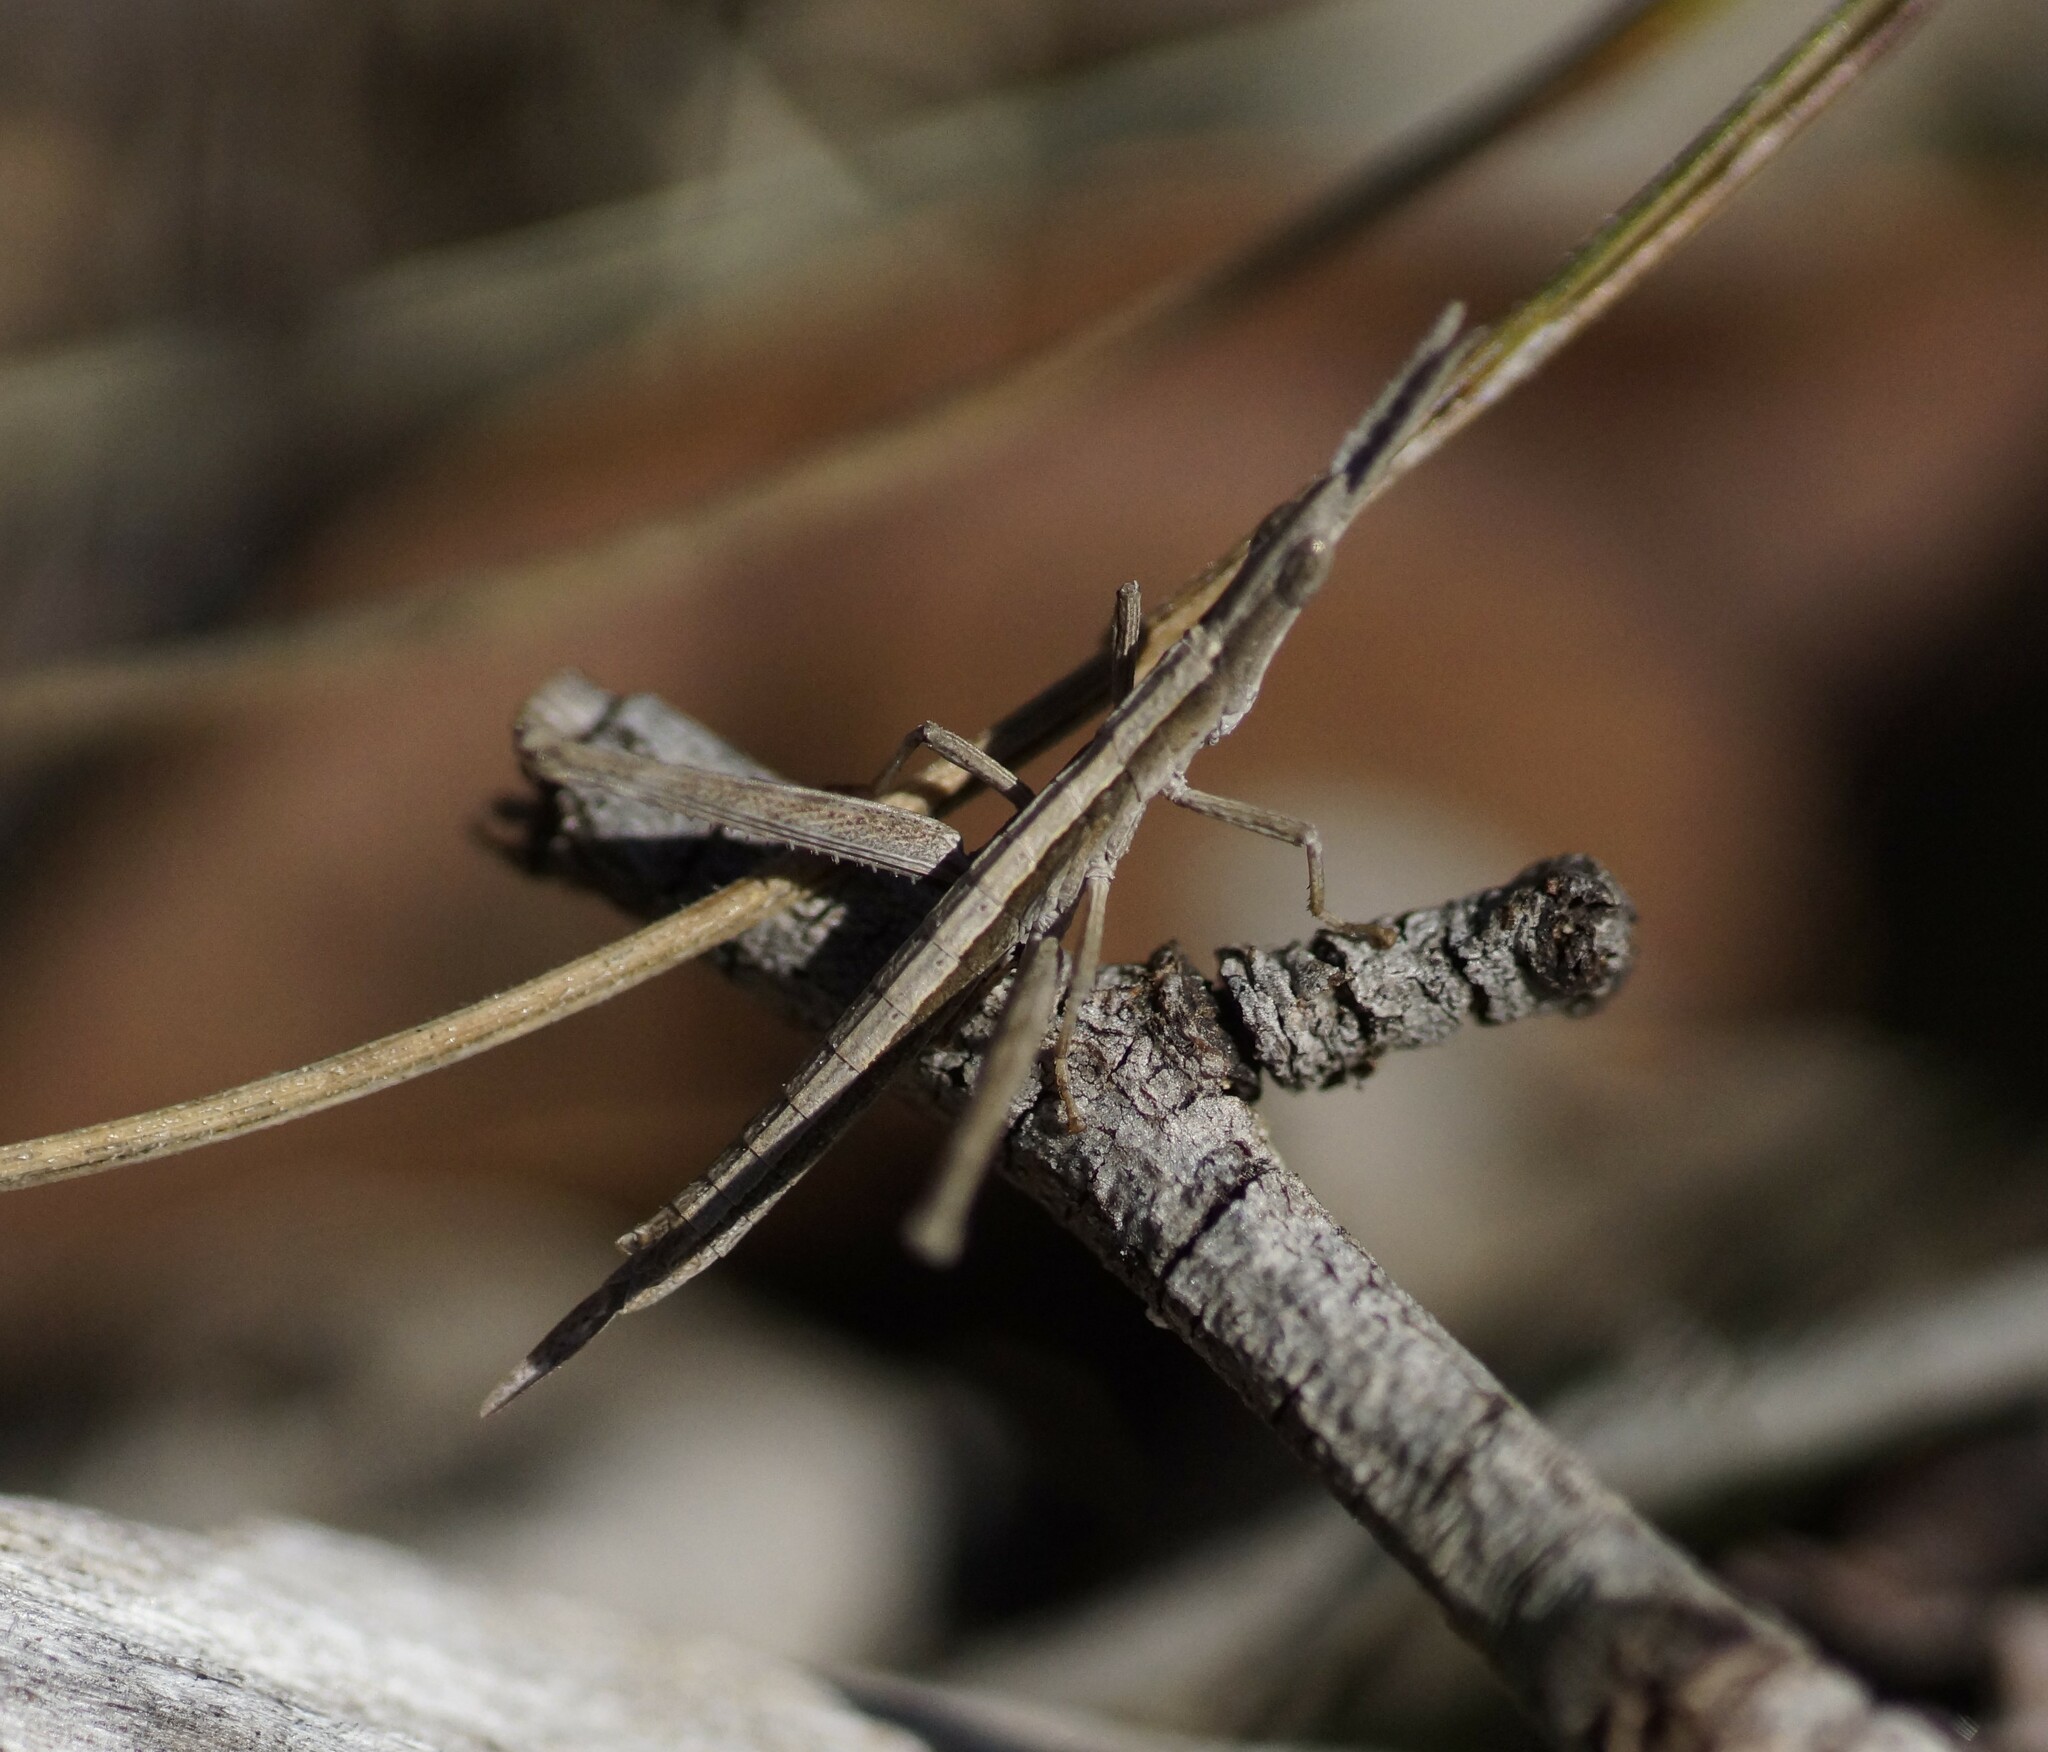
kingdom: Animalia
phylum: Arthropoda
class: Insecta
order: Orthoptera
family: Morabidae
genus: Vandiemenella
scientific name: Vandiemenella viatica
